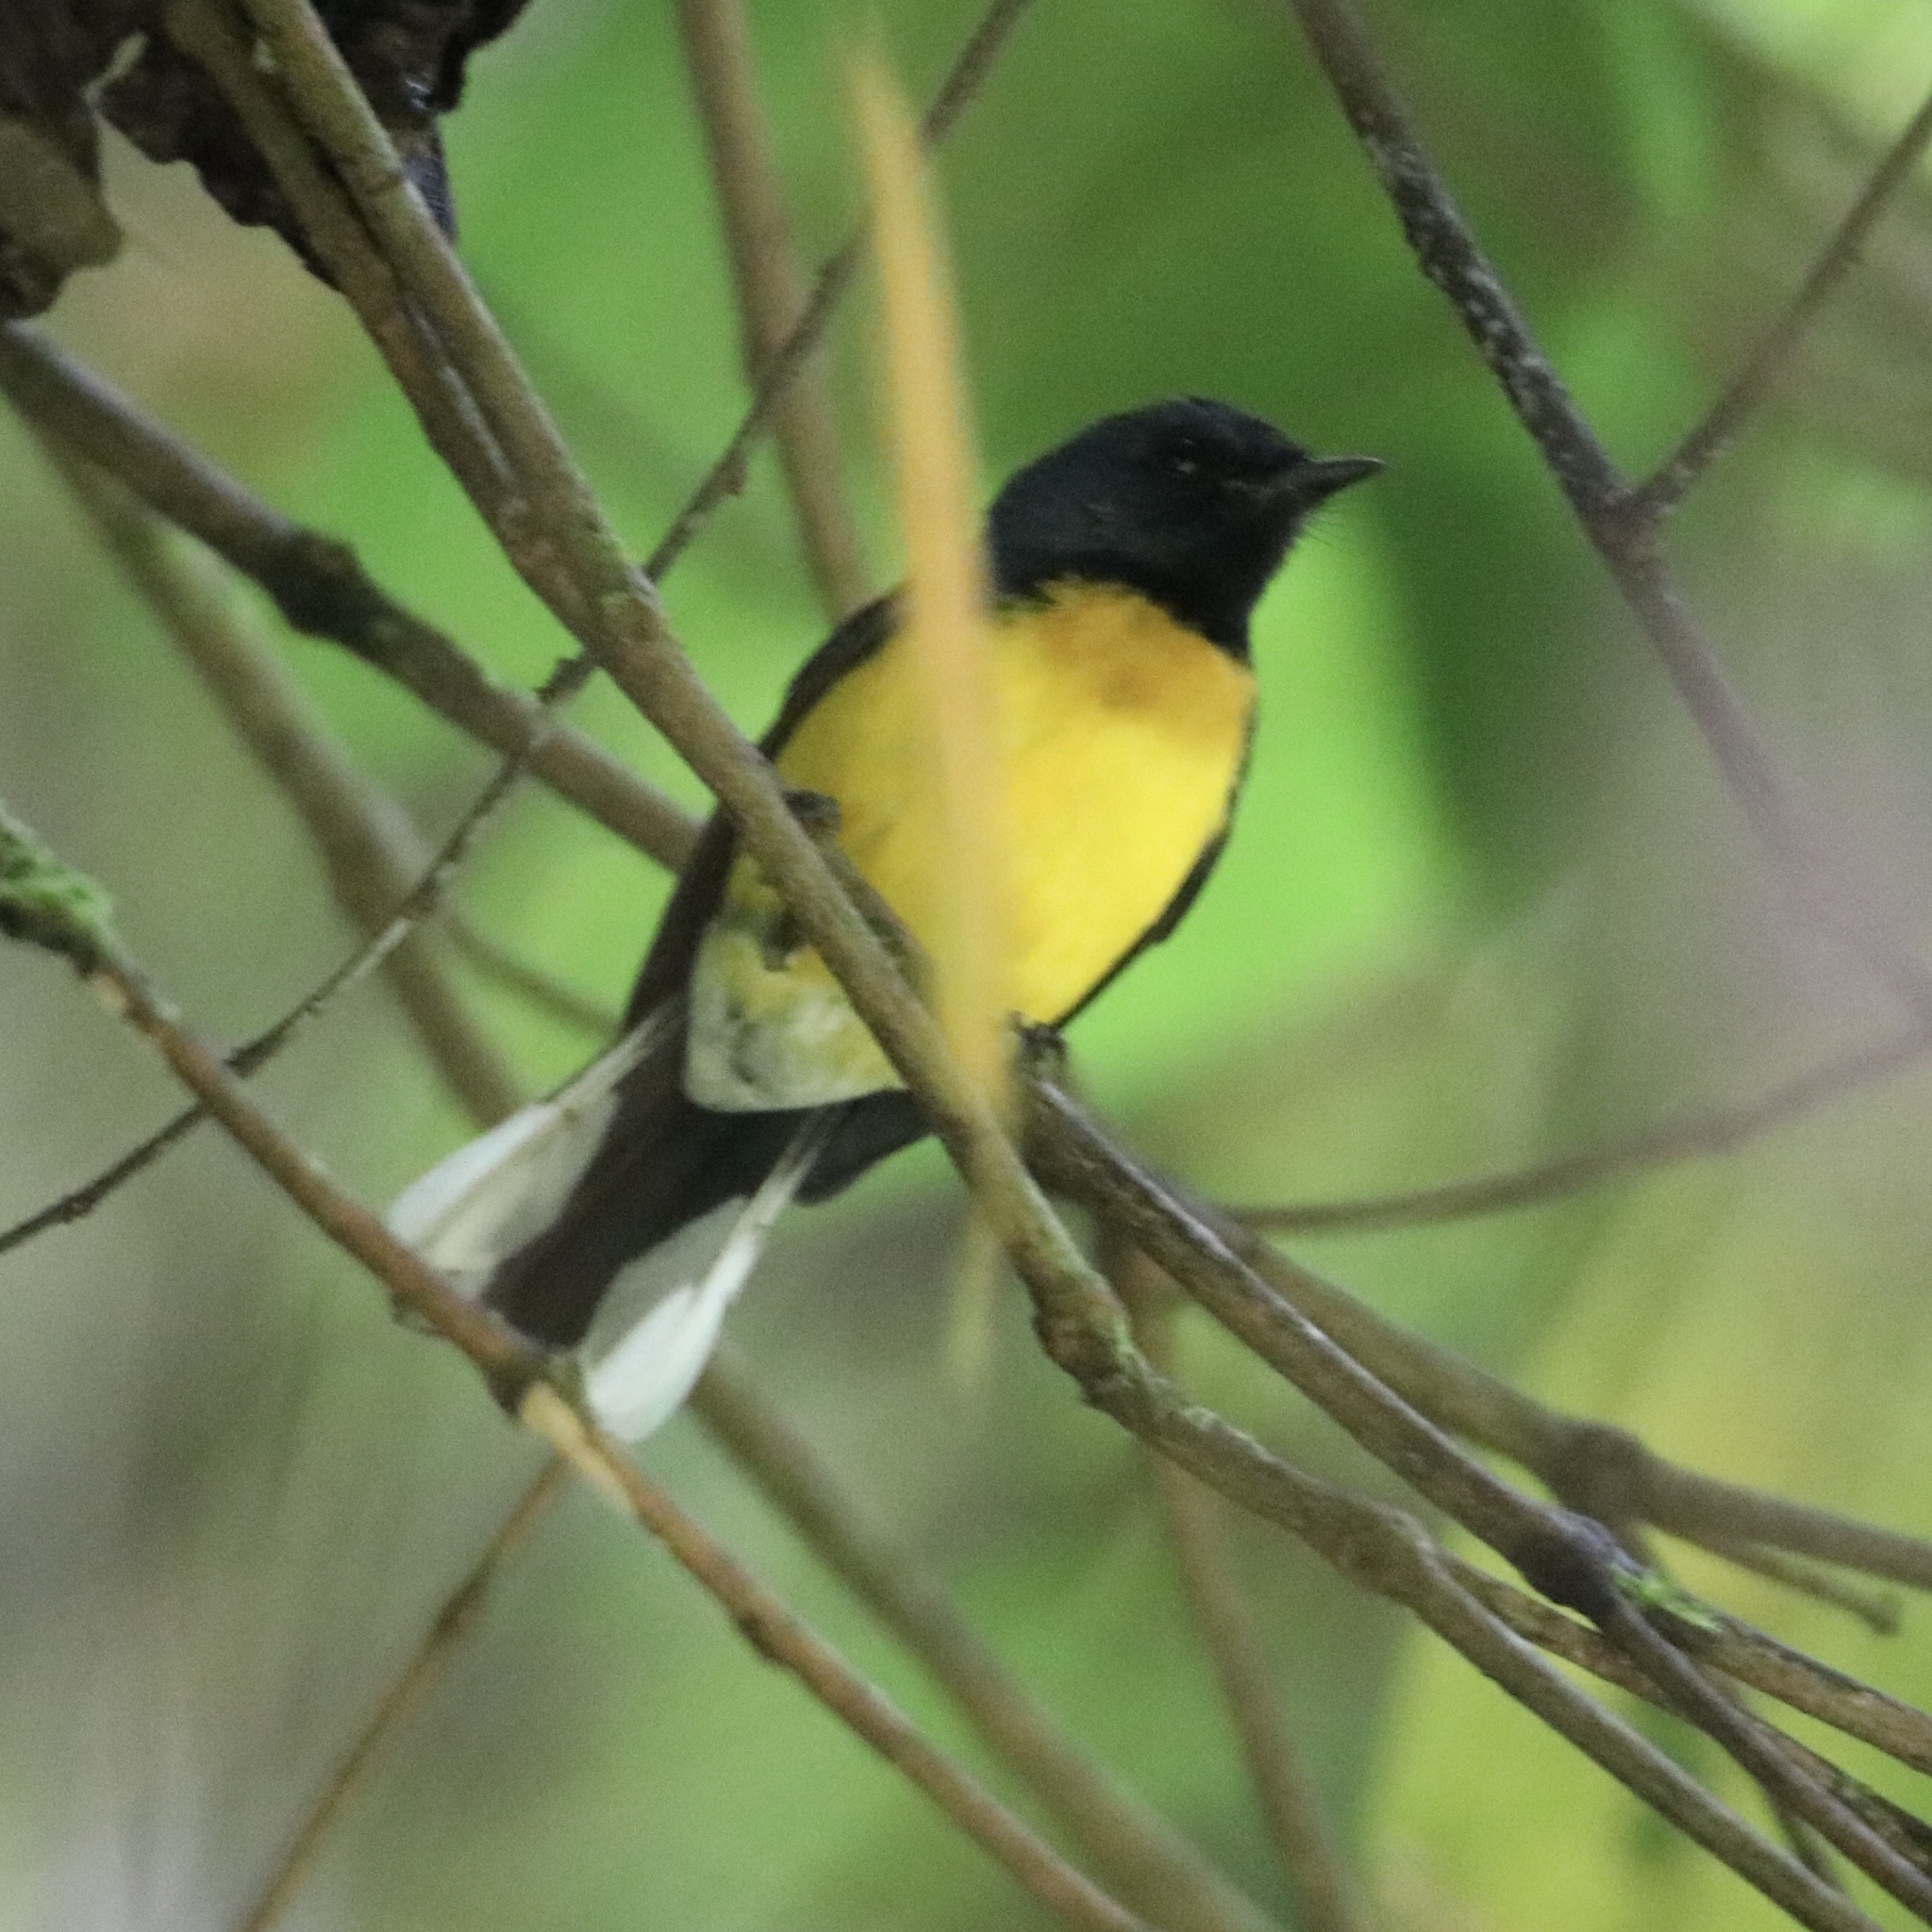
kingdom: Animalia
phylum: Chordata
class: Aves
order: Passeriformes
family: Parulidae
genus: Myioborus
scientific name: Myioborus miniatus
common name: Slate-throated redstart
